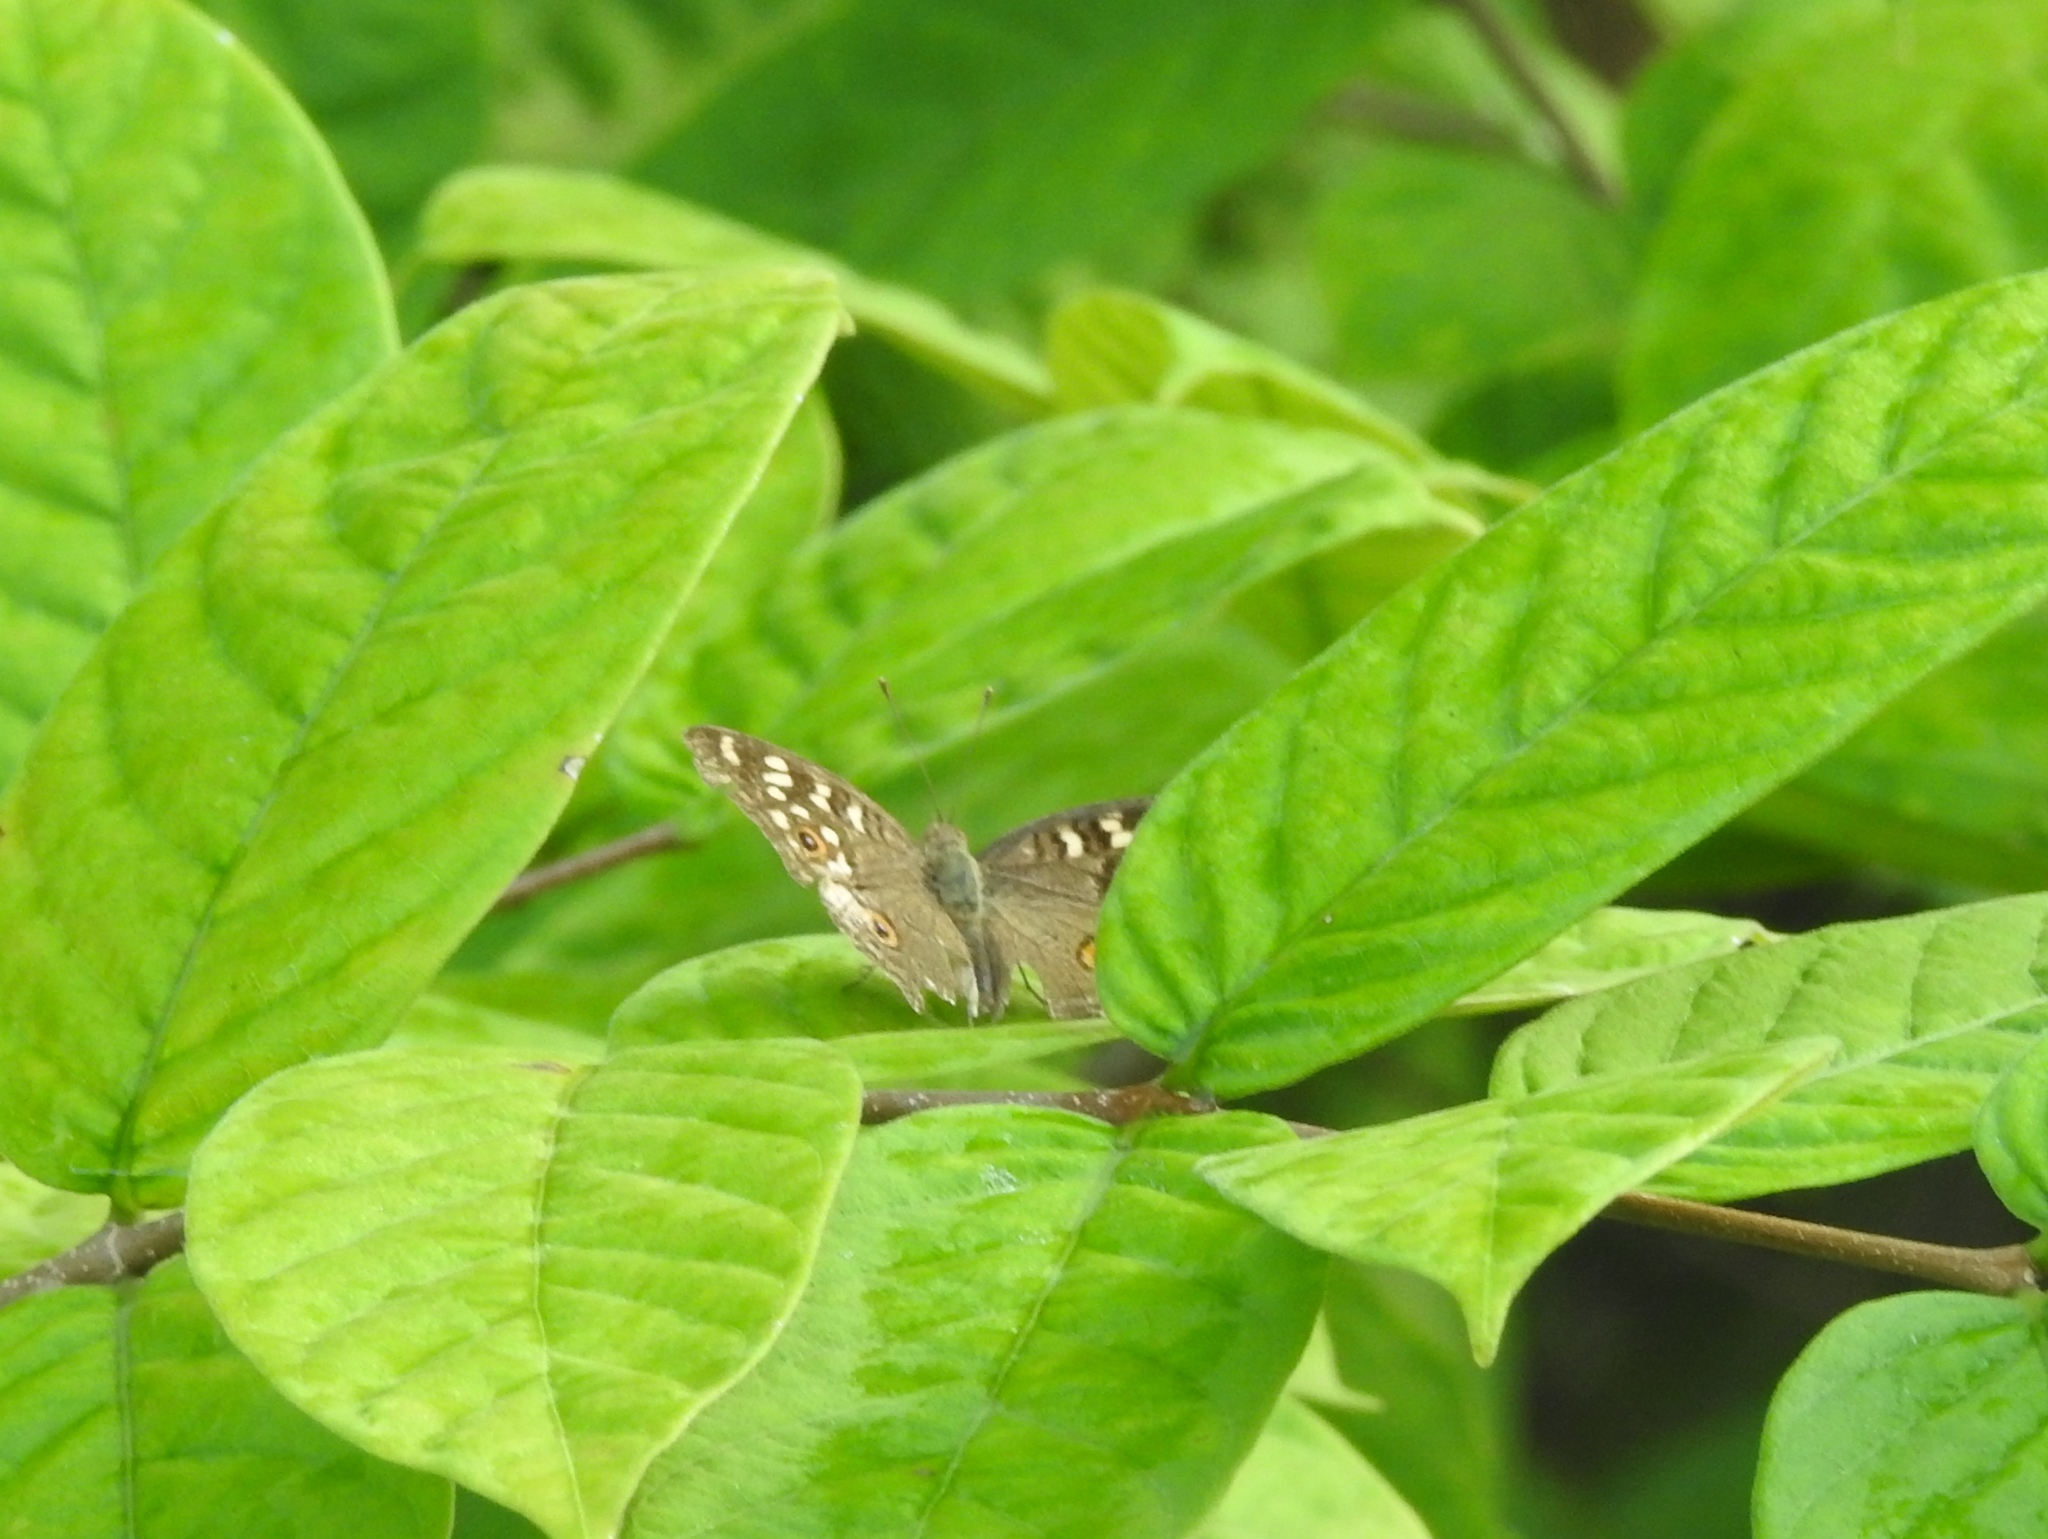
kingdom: Animalia
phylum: Arthropoda
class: Insecta
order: Lepidoptera
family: Nymphalidae
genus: Junonia
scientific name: Junonia lemonias
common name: Lemon pansy
